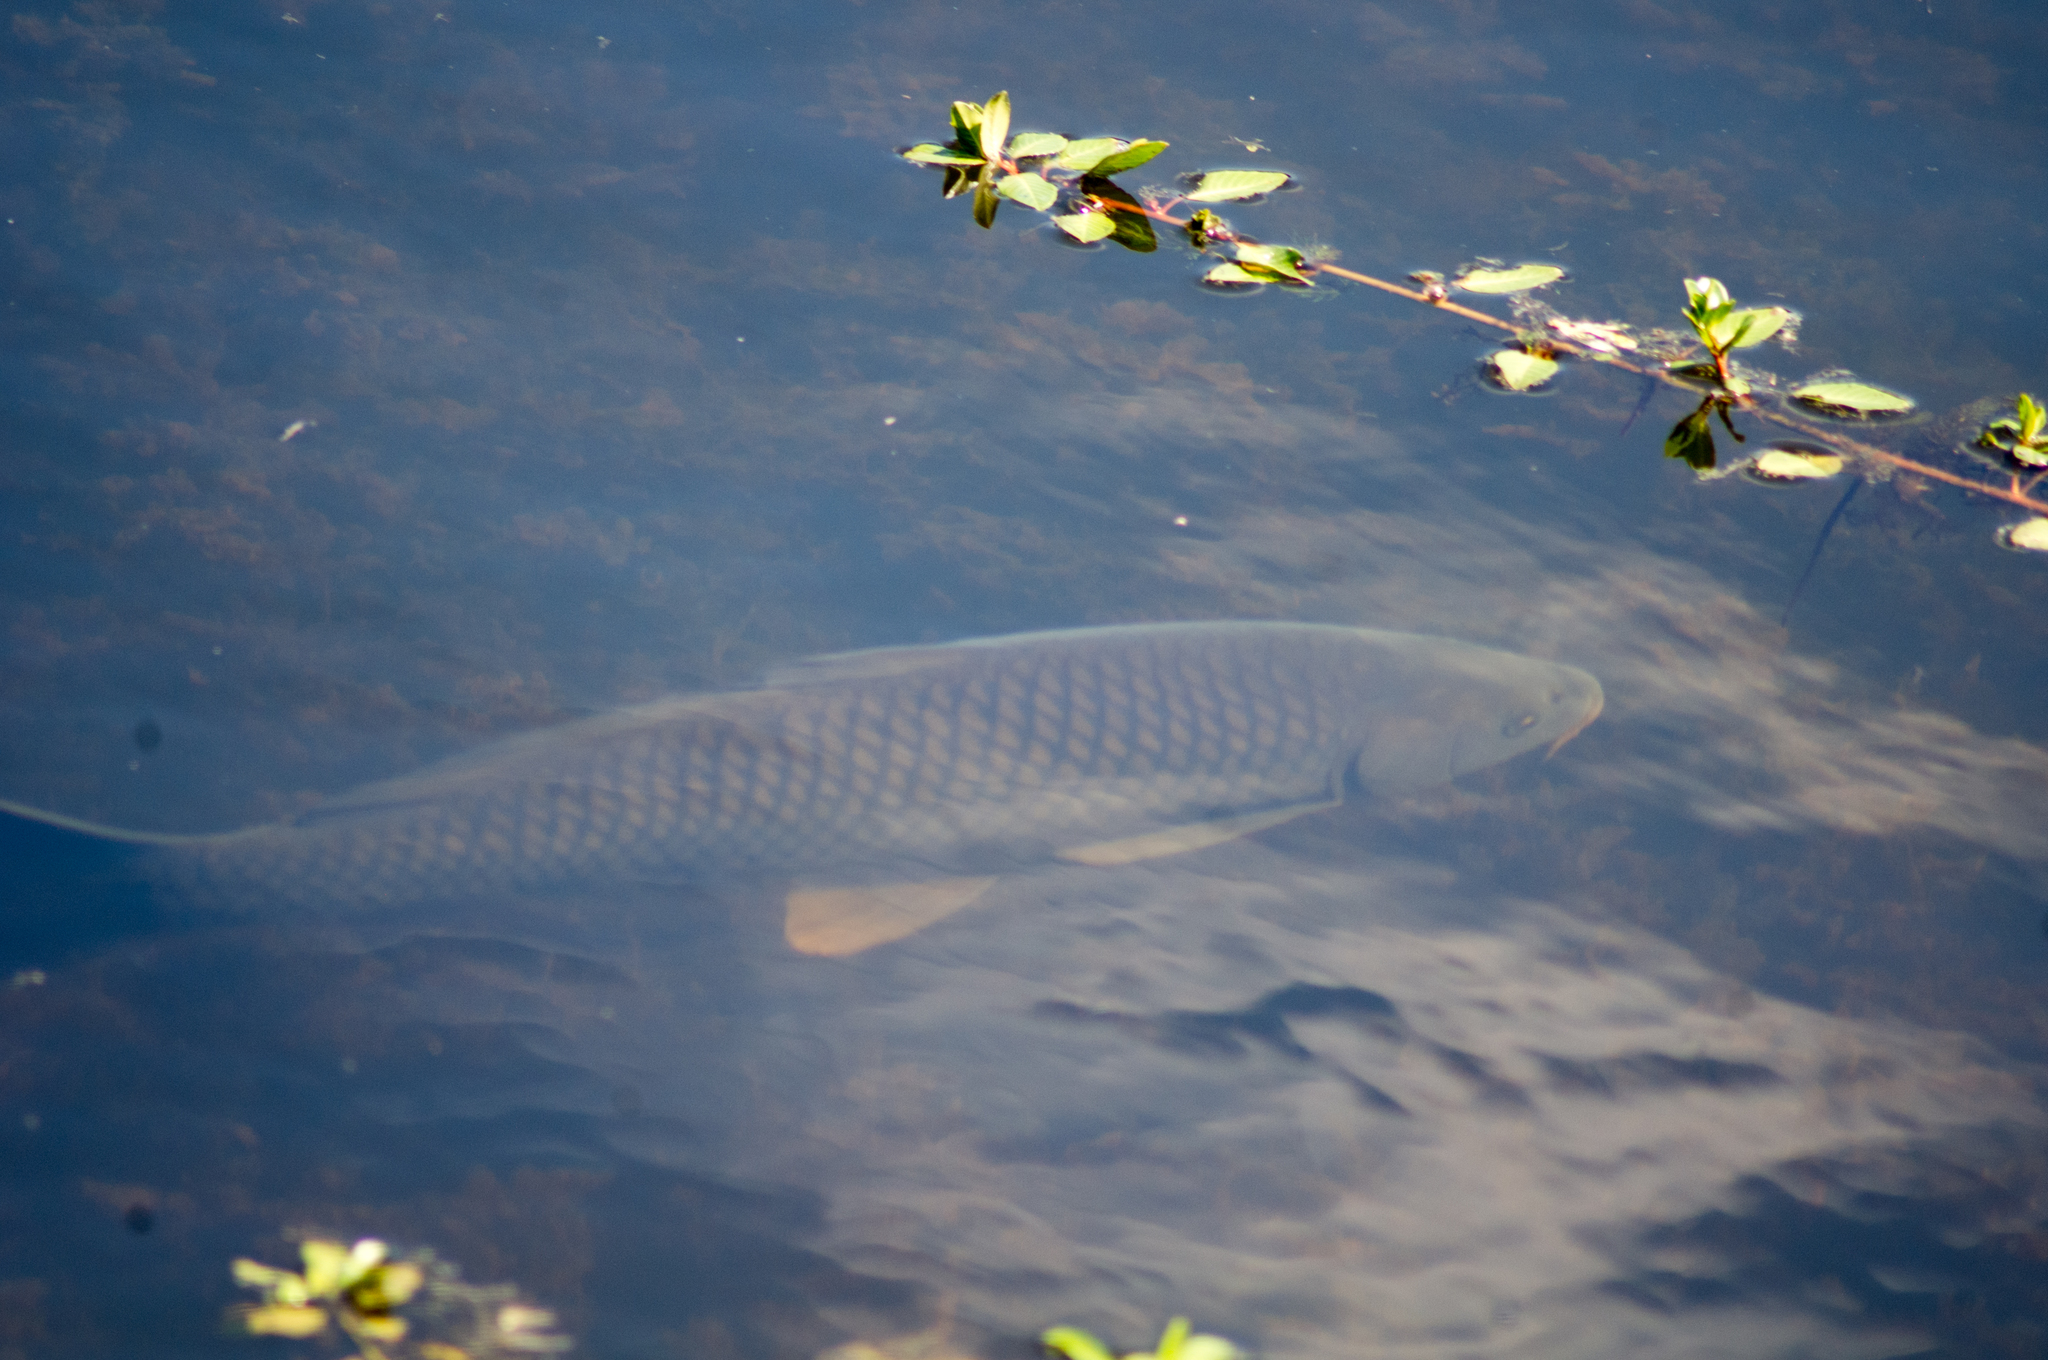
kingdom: Animalia
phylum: Chordata
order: Cypriniformes
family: Cyprinidae
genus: Cyprinus
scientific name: Cyprinus carpio
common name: Common carp
